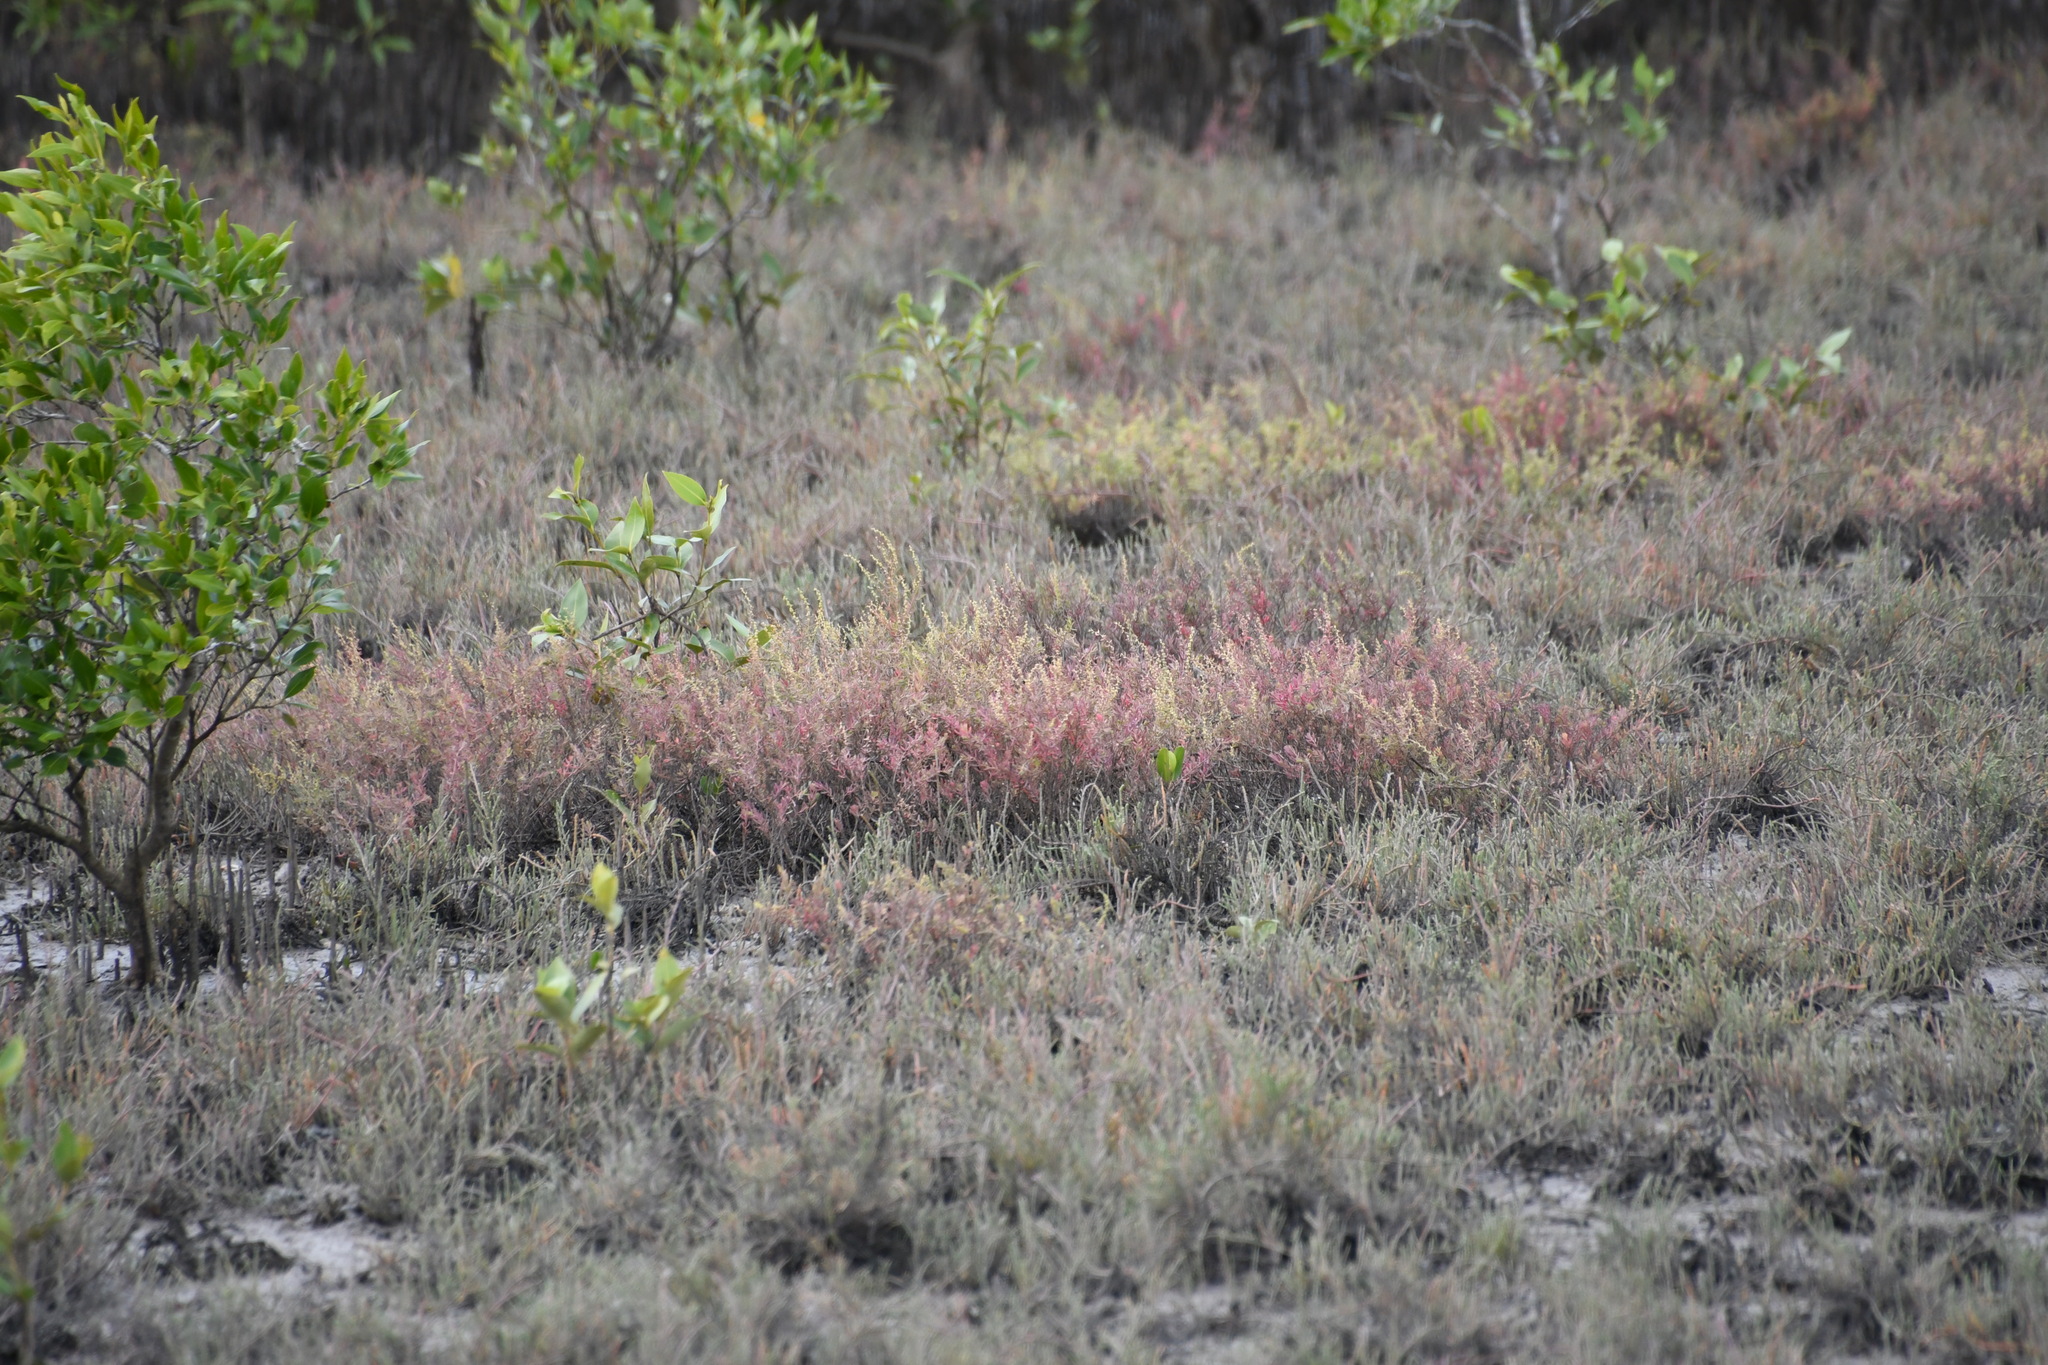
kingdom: Plantae
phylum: Tracheophyta
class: Magnoliopsida
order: Caryophyllales
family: Amaranthaceae
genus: Suaeda
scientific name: Suaeda australis
